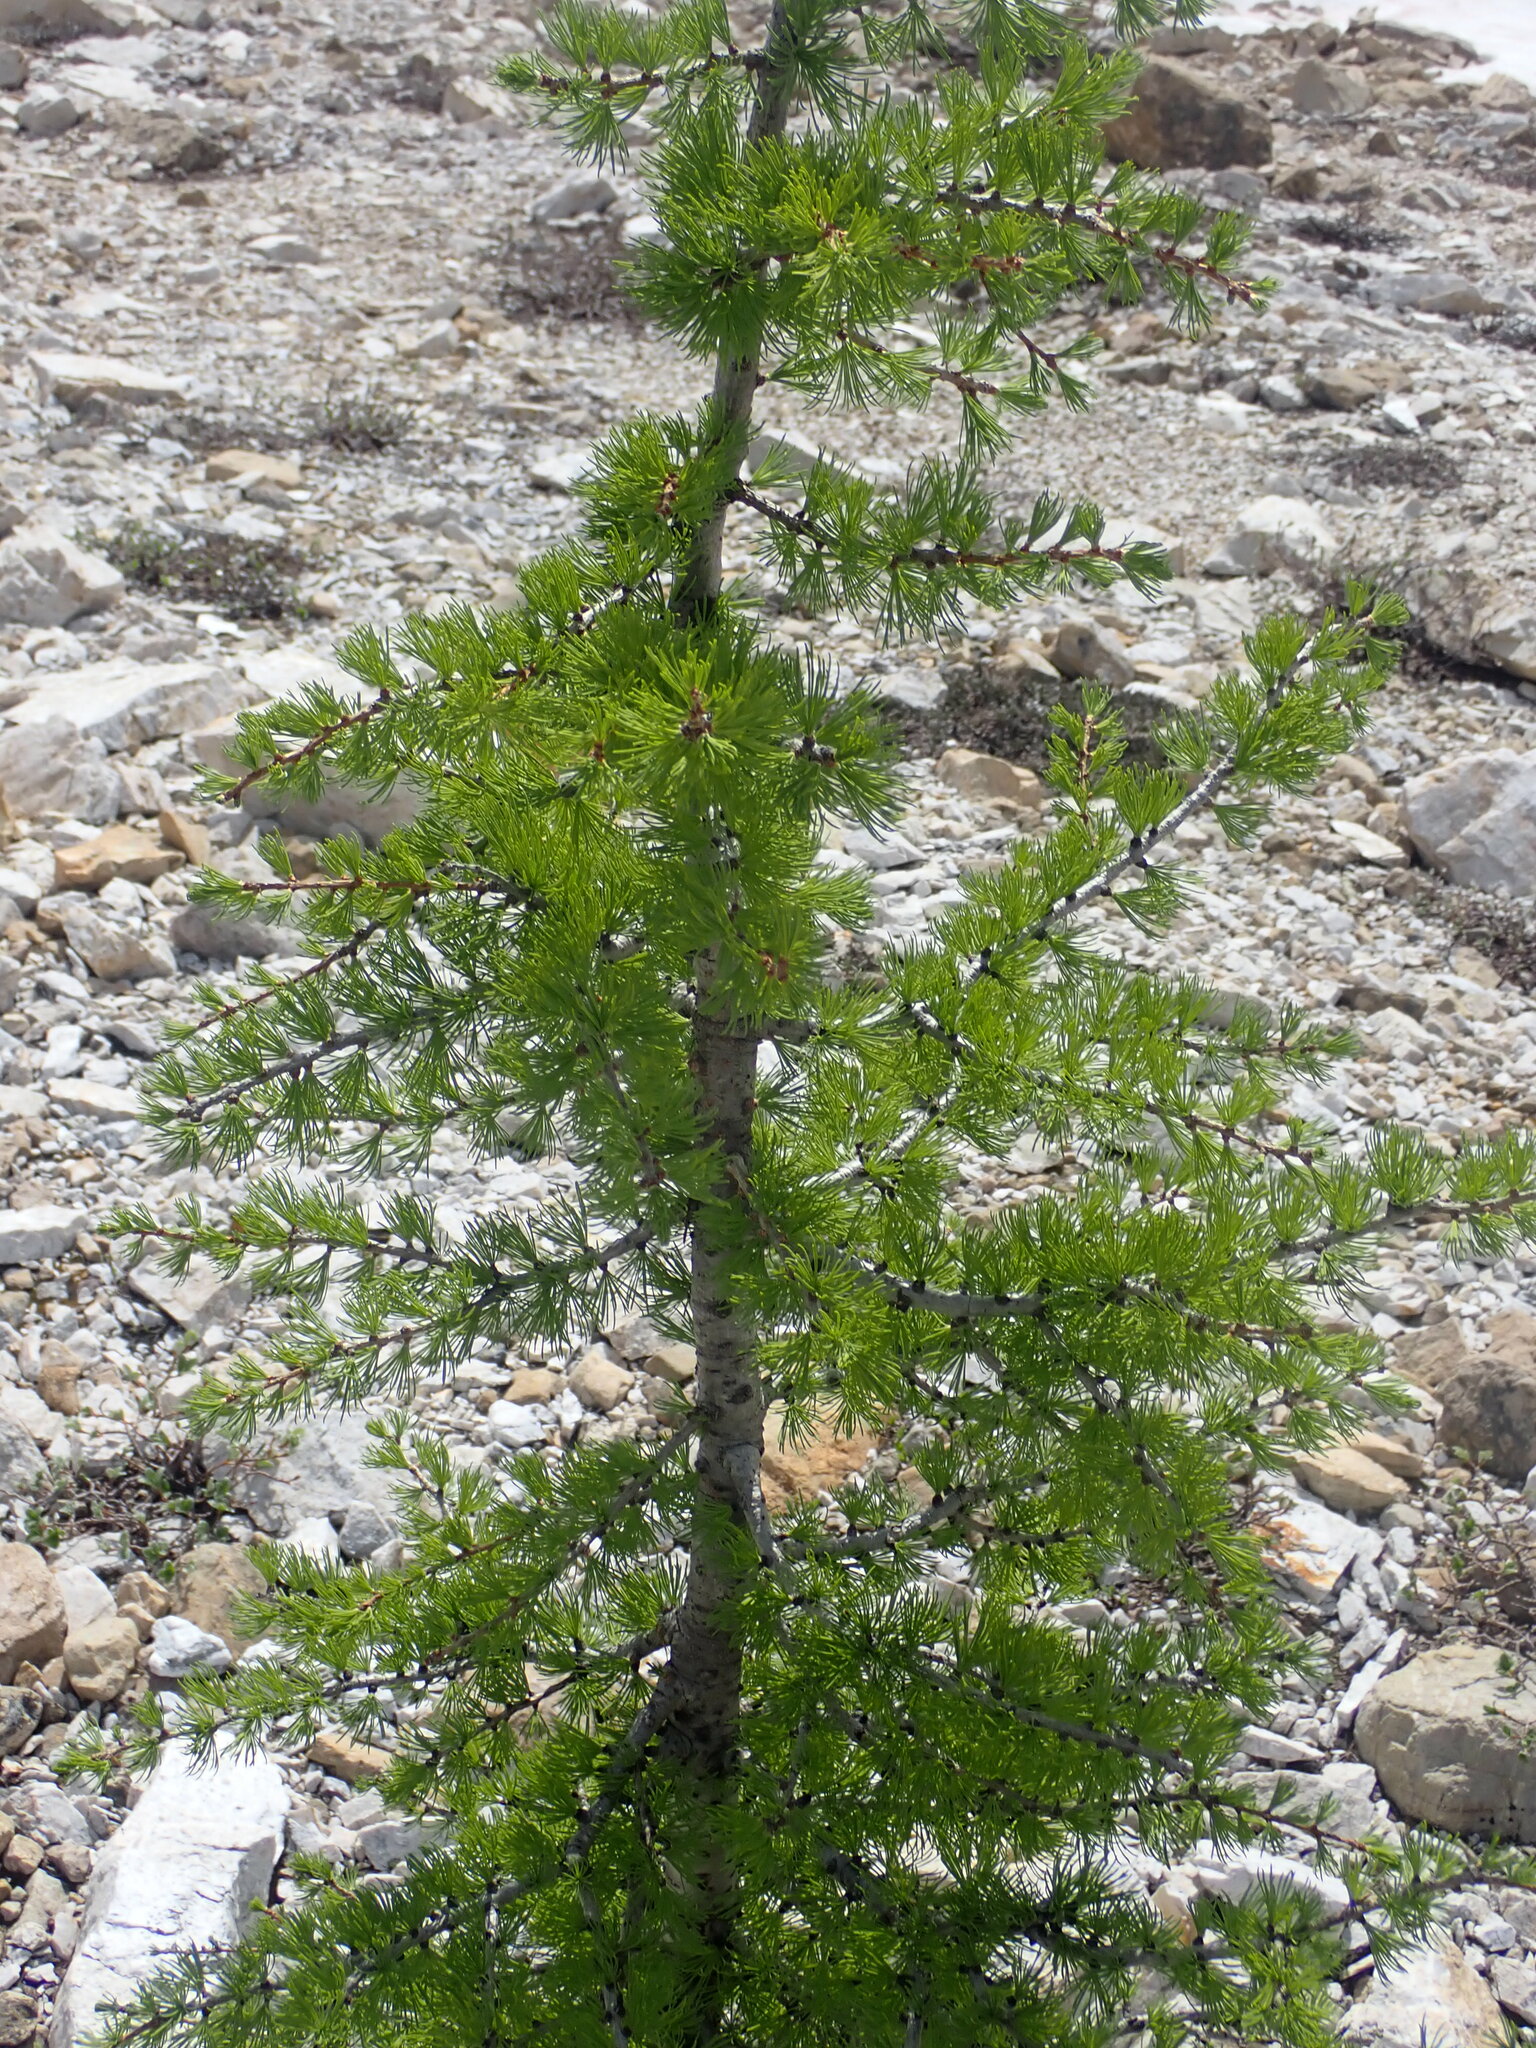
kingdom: Plantae
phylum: Tracheophyta
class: Pinopsida
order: Pinales
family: Pinaceae
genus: Larix
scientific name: Larix lyallii
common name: Alpine larch
